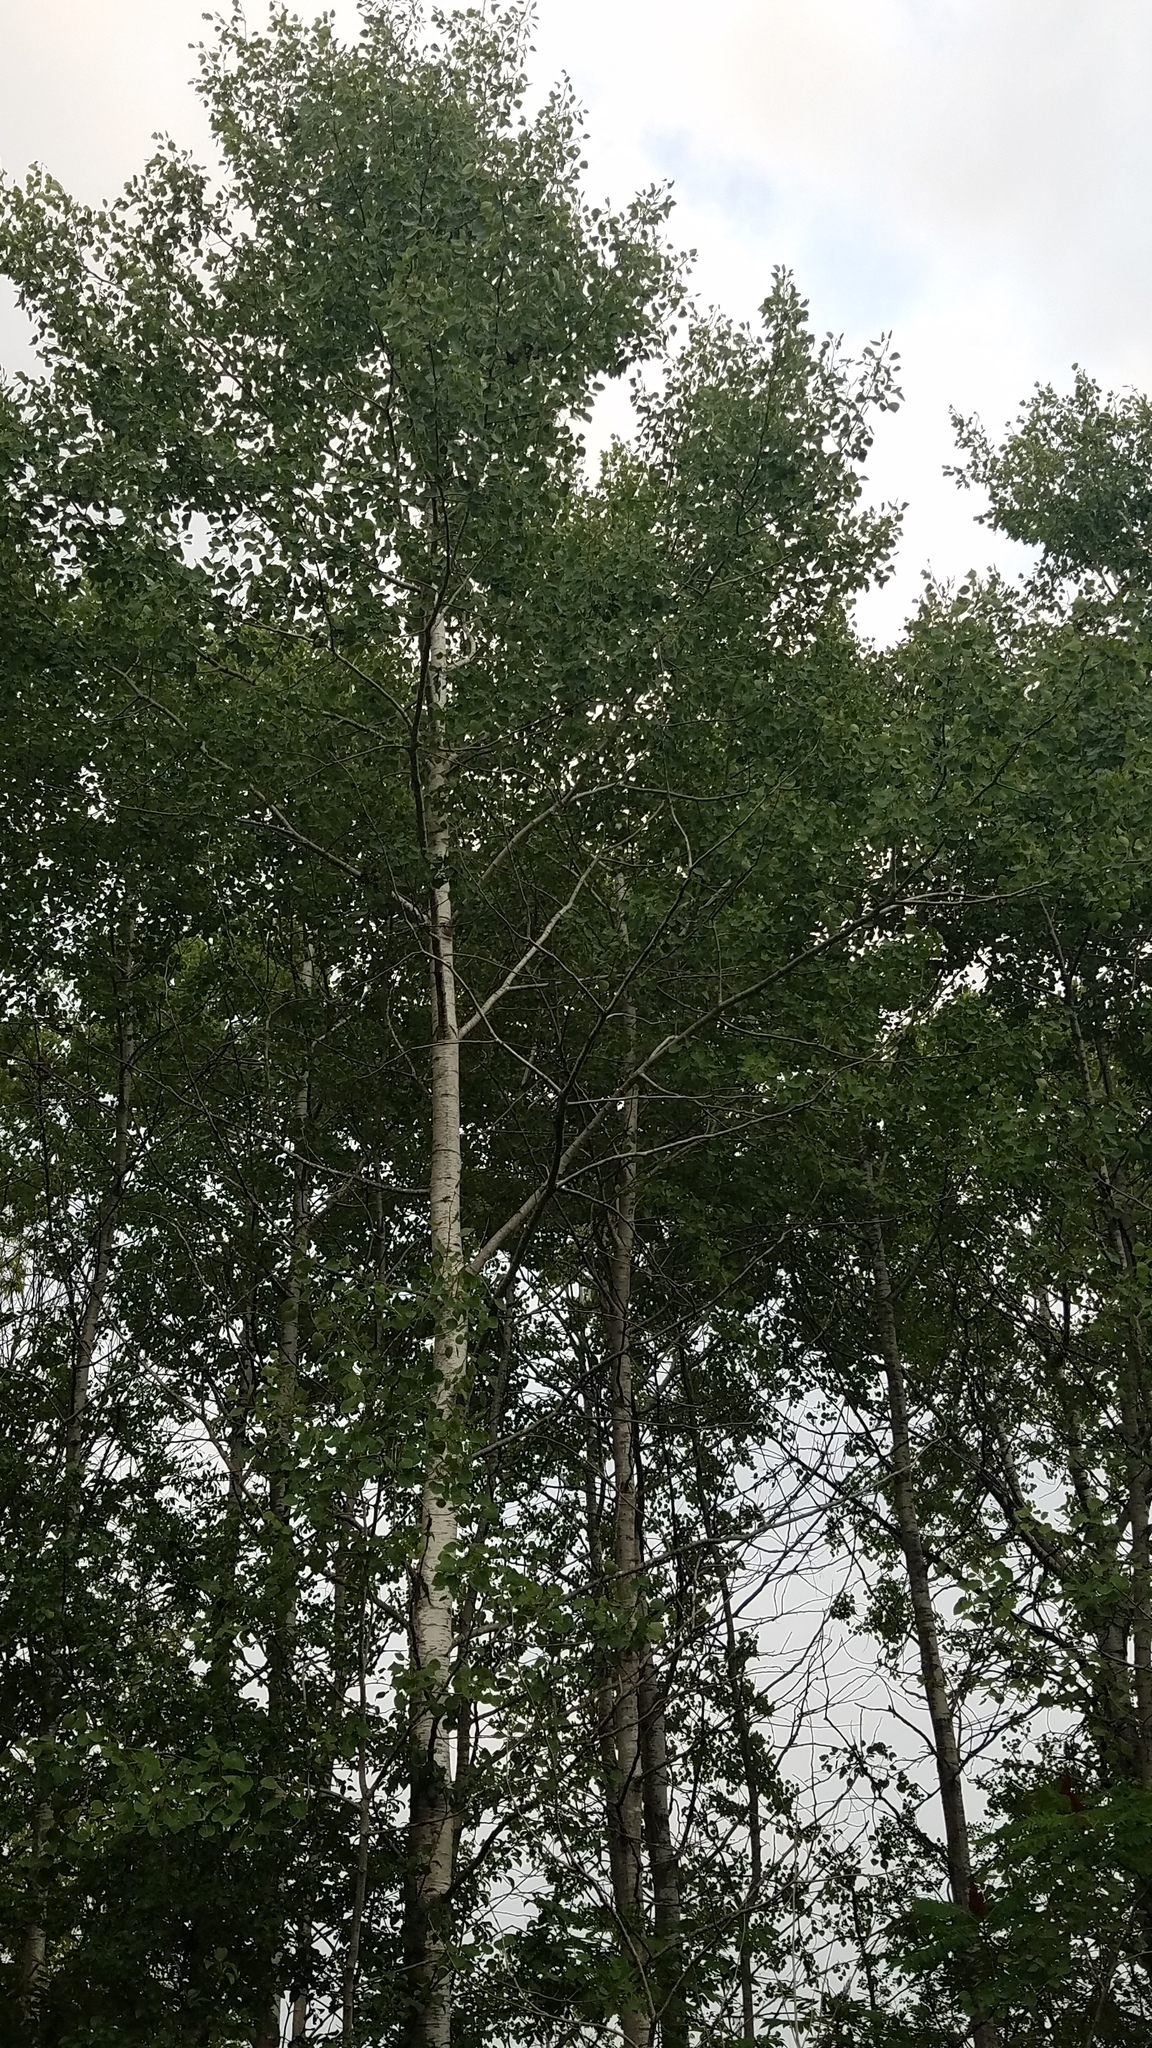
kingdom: Plantae
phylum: Tracheophyta
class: Magnoliopsida
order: Malpighiales
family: Salicaceae
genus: Populus
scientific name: Populus tremuloides
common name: Quaking aspen
